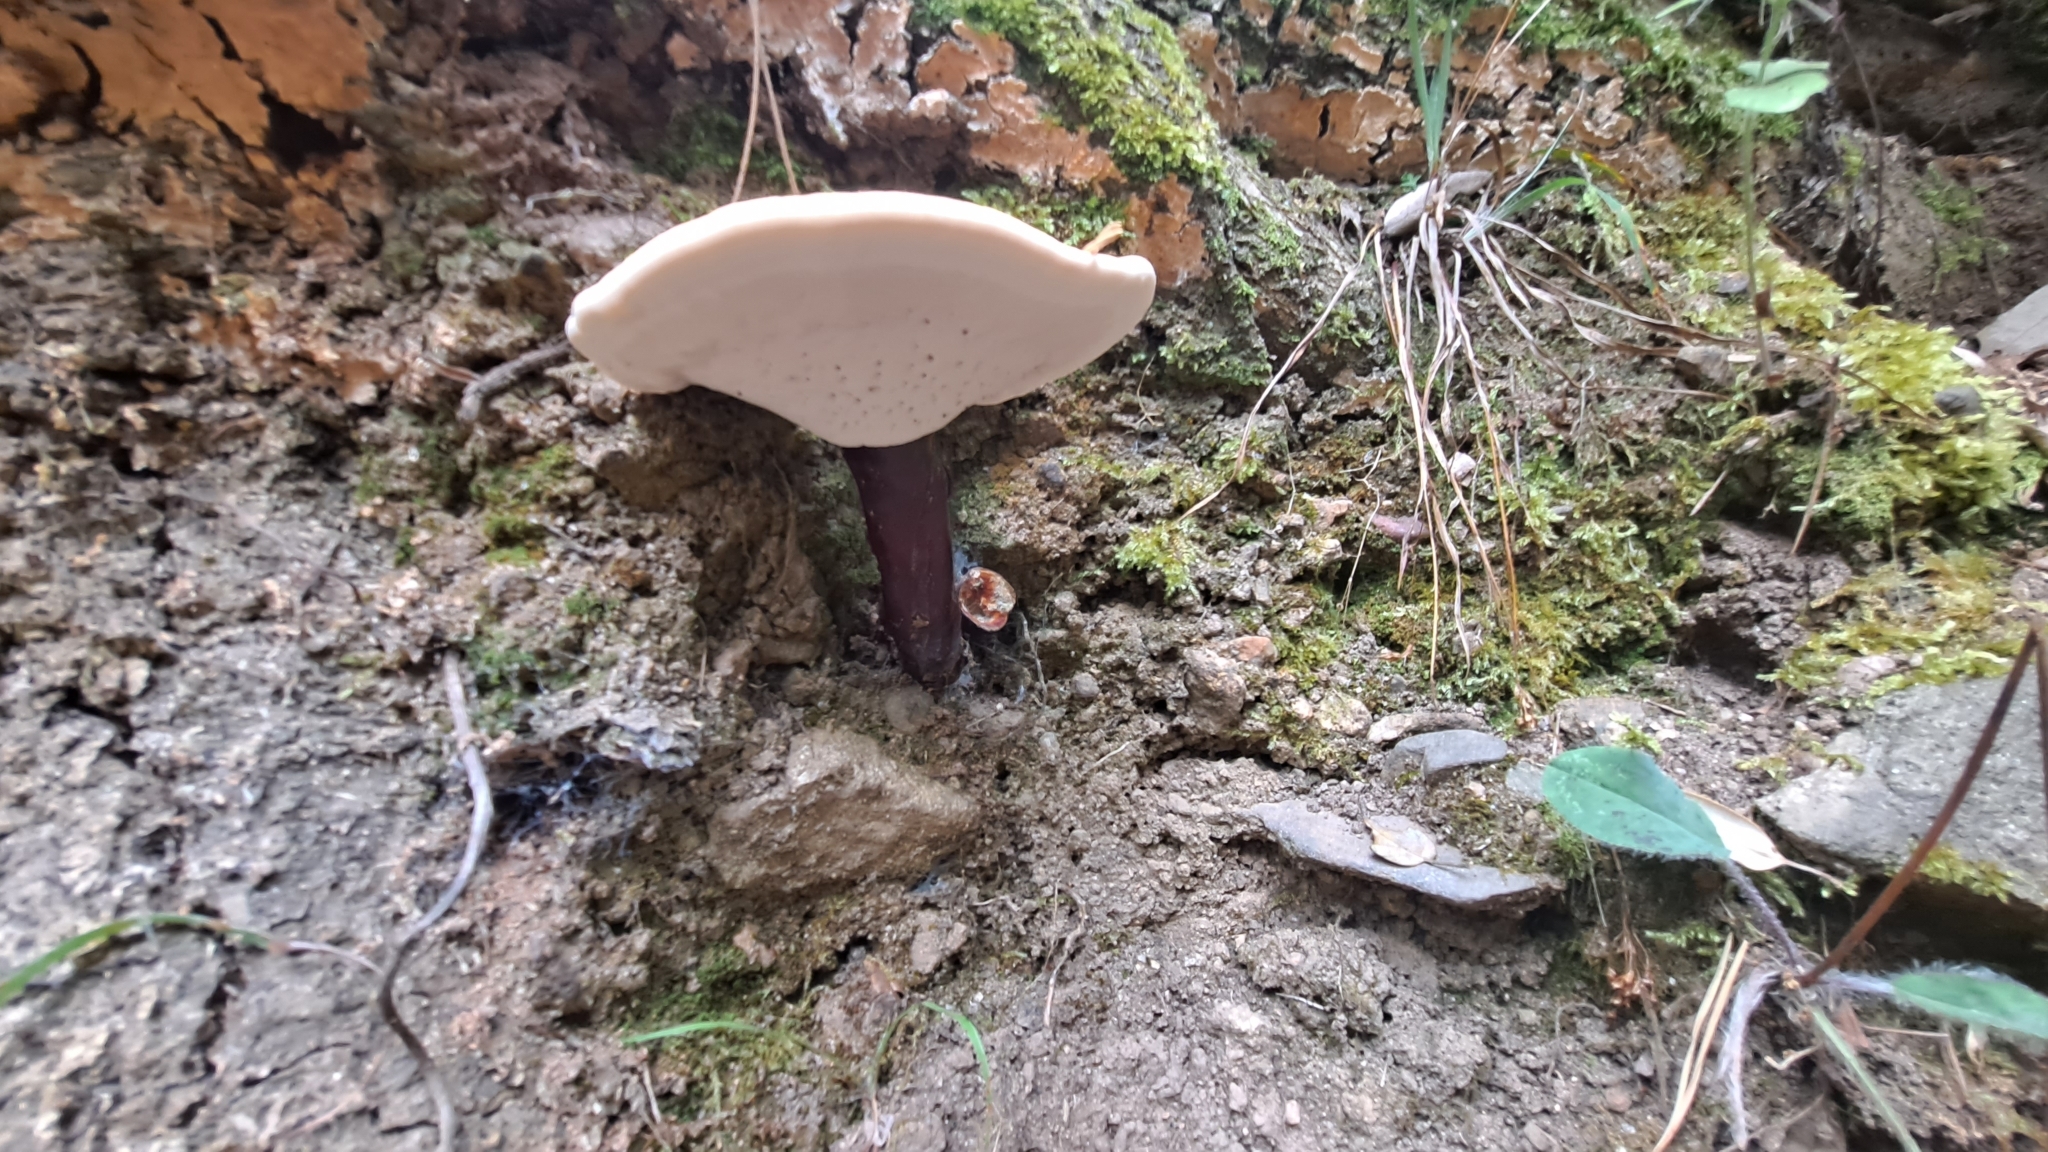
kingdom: Fungi
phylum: Basidiomycota
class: Agaricomycetes
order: Polyporales
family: Polyporaceae
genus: Ganoderma
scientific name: Ganoderma lucidum
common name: Lacquered bracket
